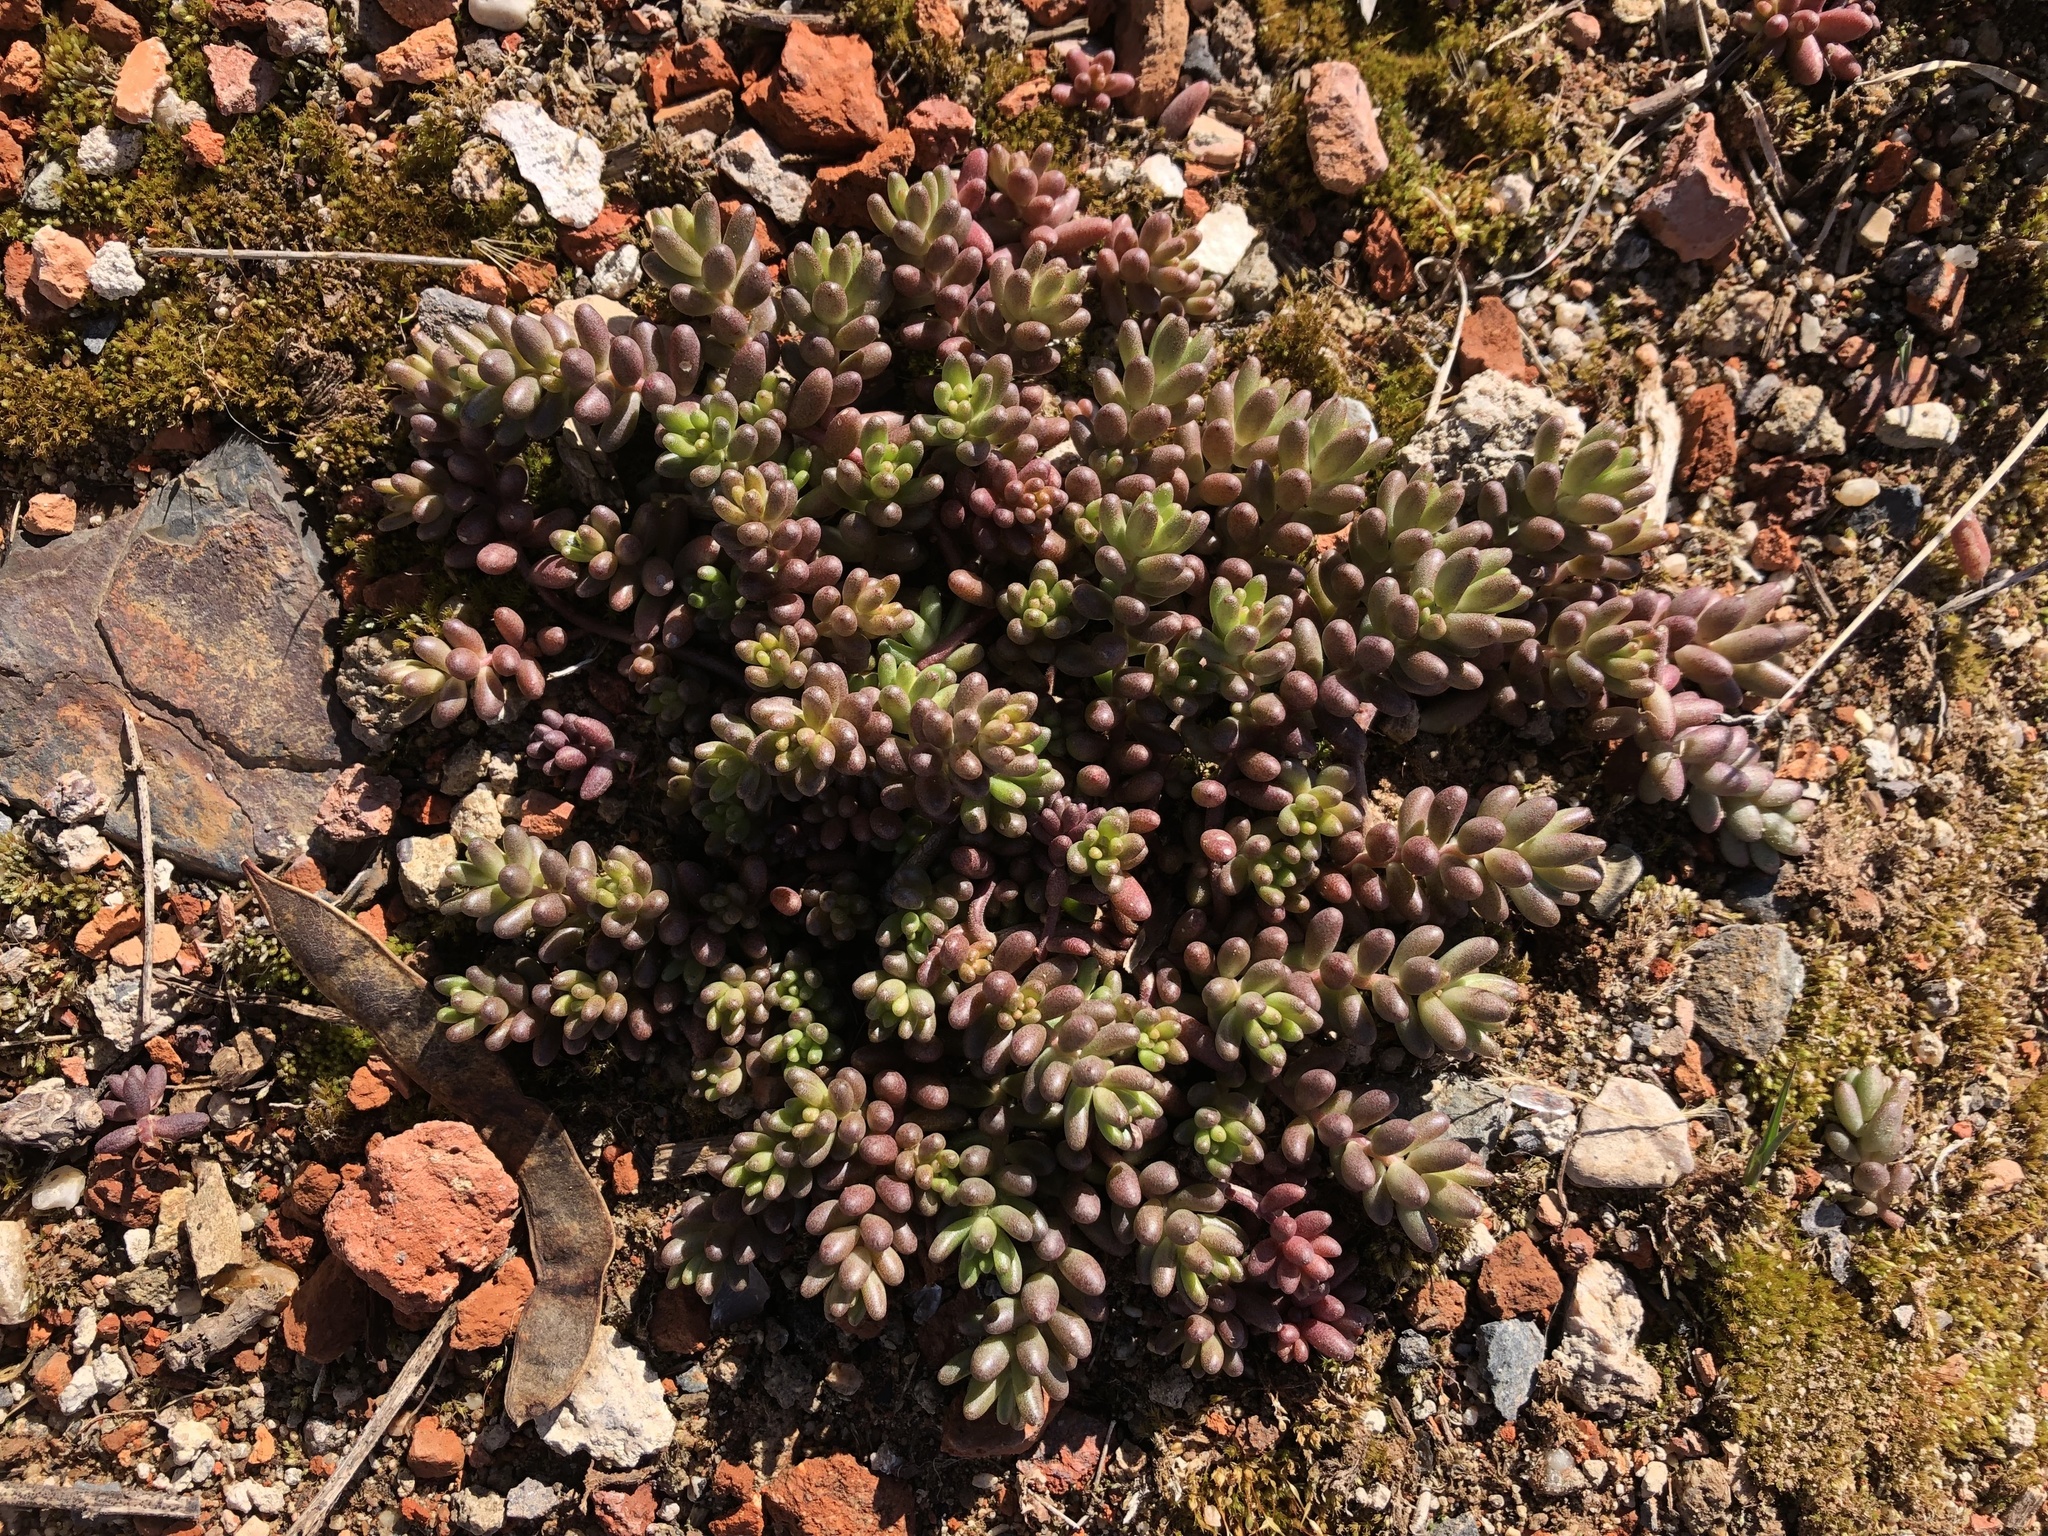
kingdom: Plantae
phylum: Tracheophyta
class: Magnoliopsida
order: Saxifragales
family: Crassulaceae
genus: Sedum
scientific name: Sedum album
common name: White stonecrop
